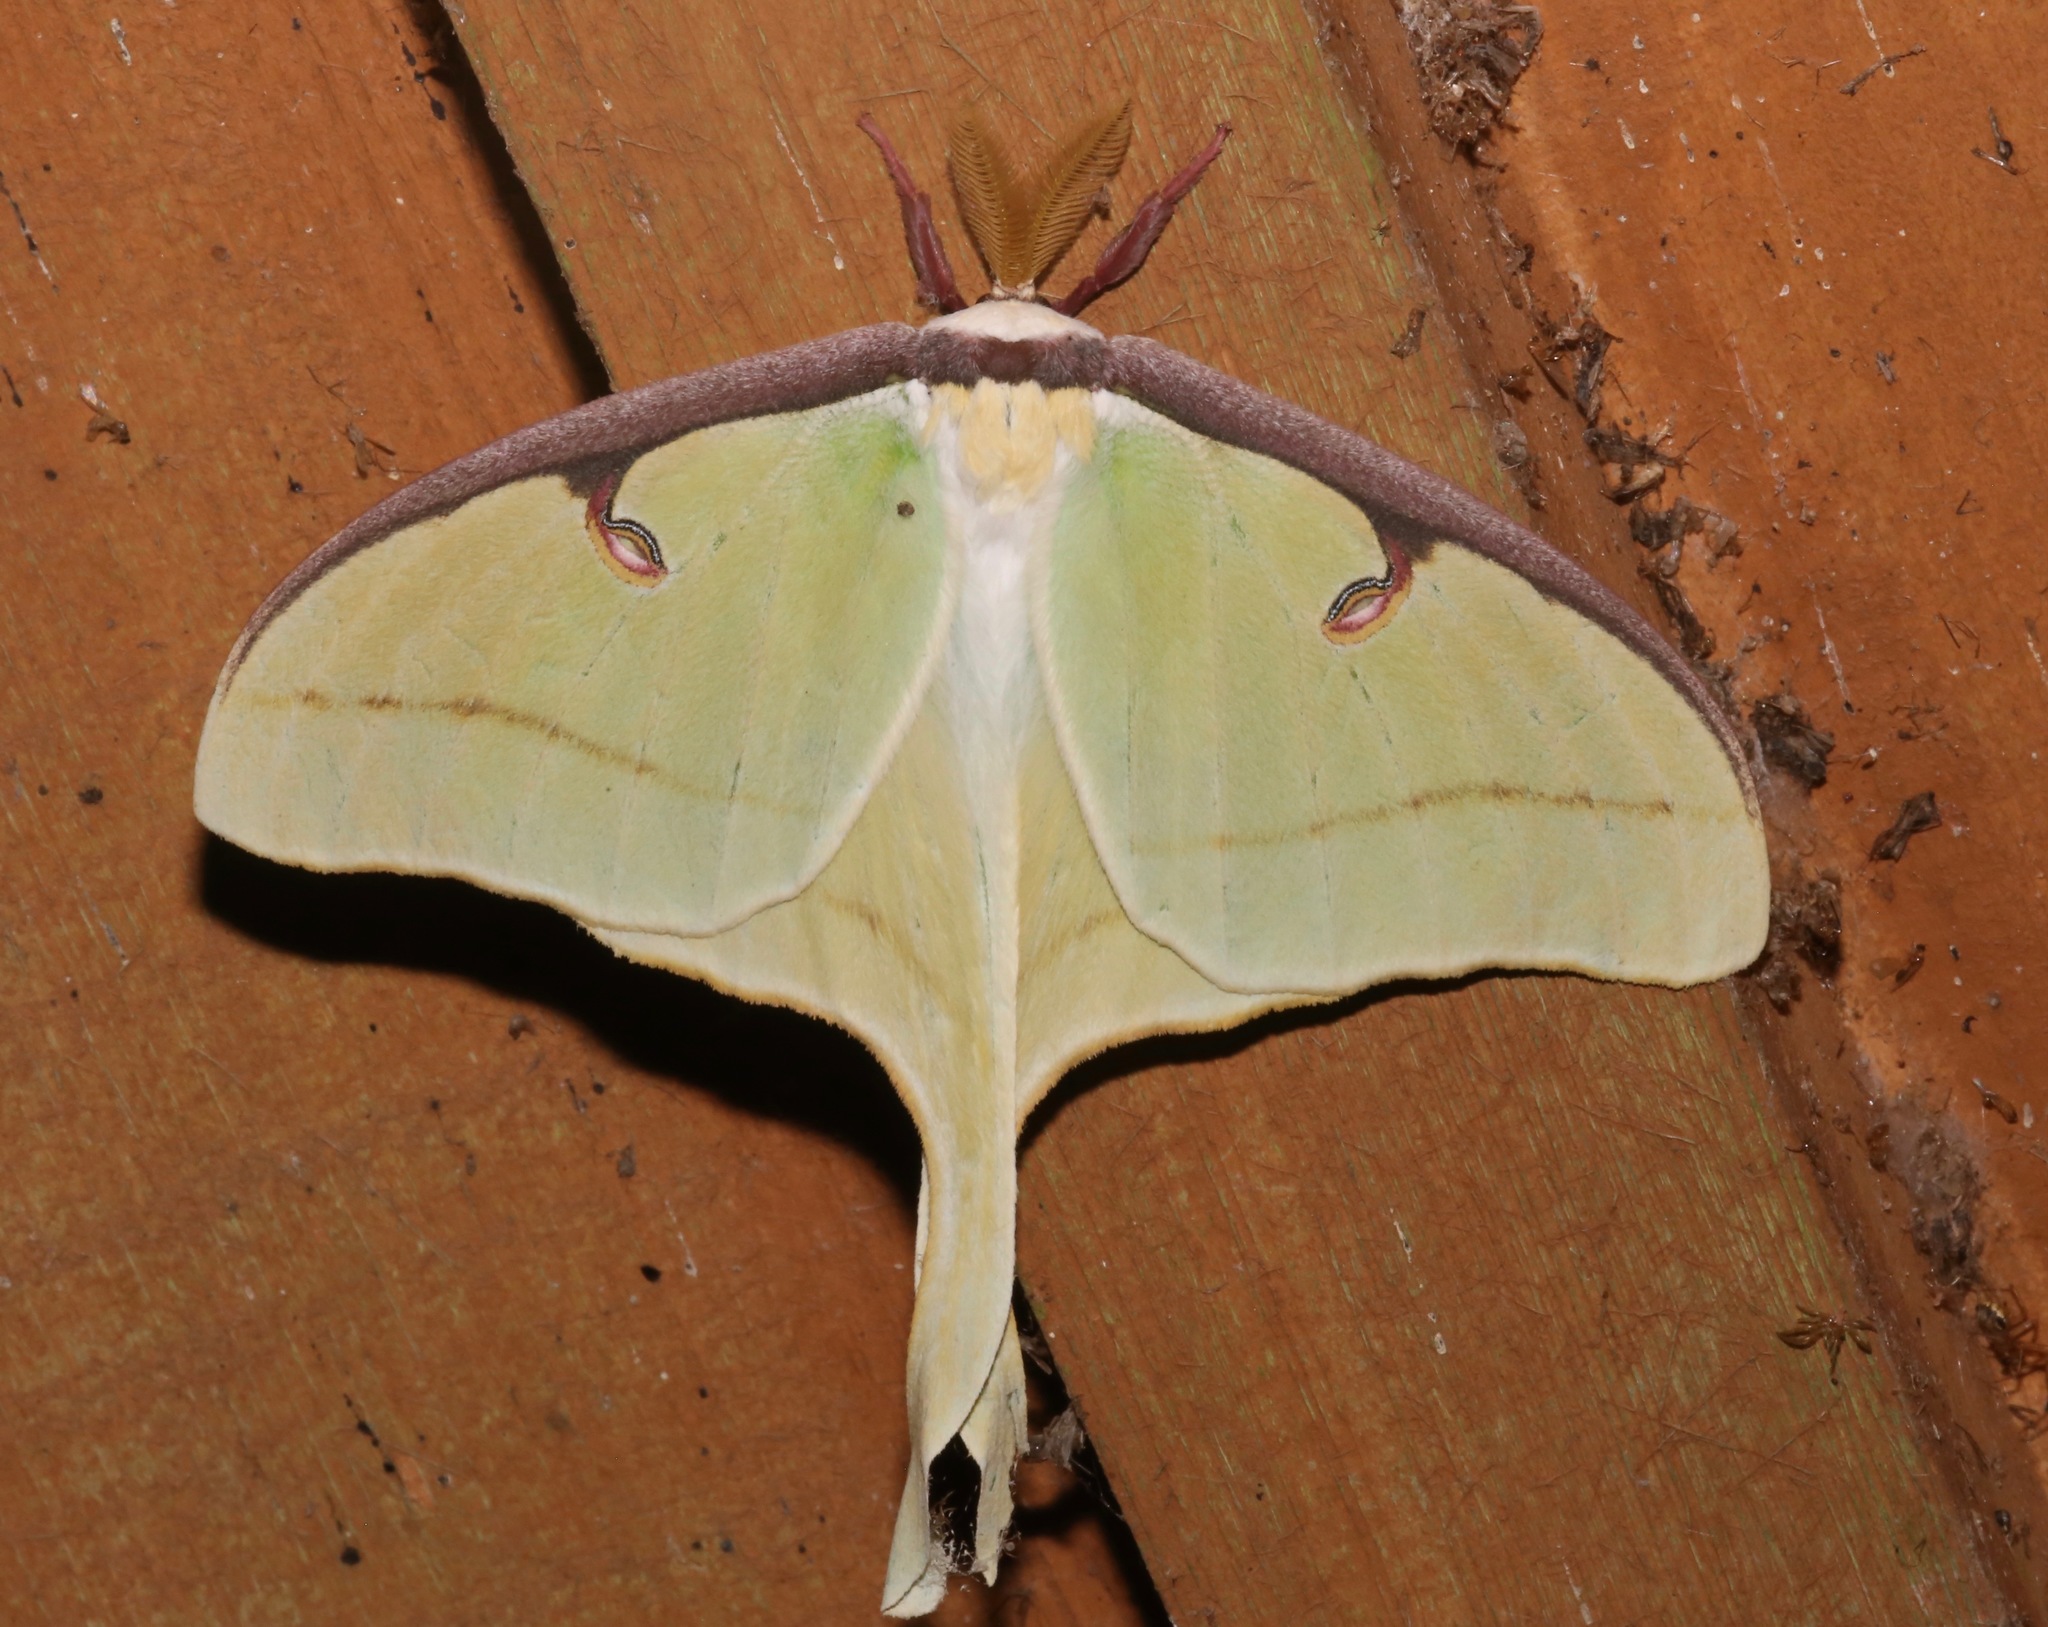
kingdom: Animalia
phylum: Arthropoda
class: Insecta
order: Lepidoptera
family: Saturniidae
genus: Actias
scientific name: Actias luna
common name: Luna moth
